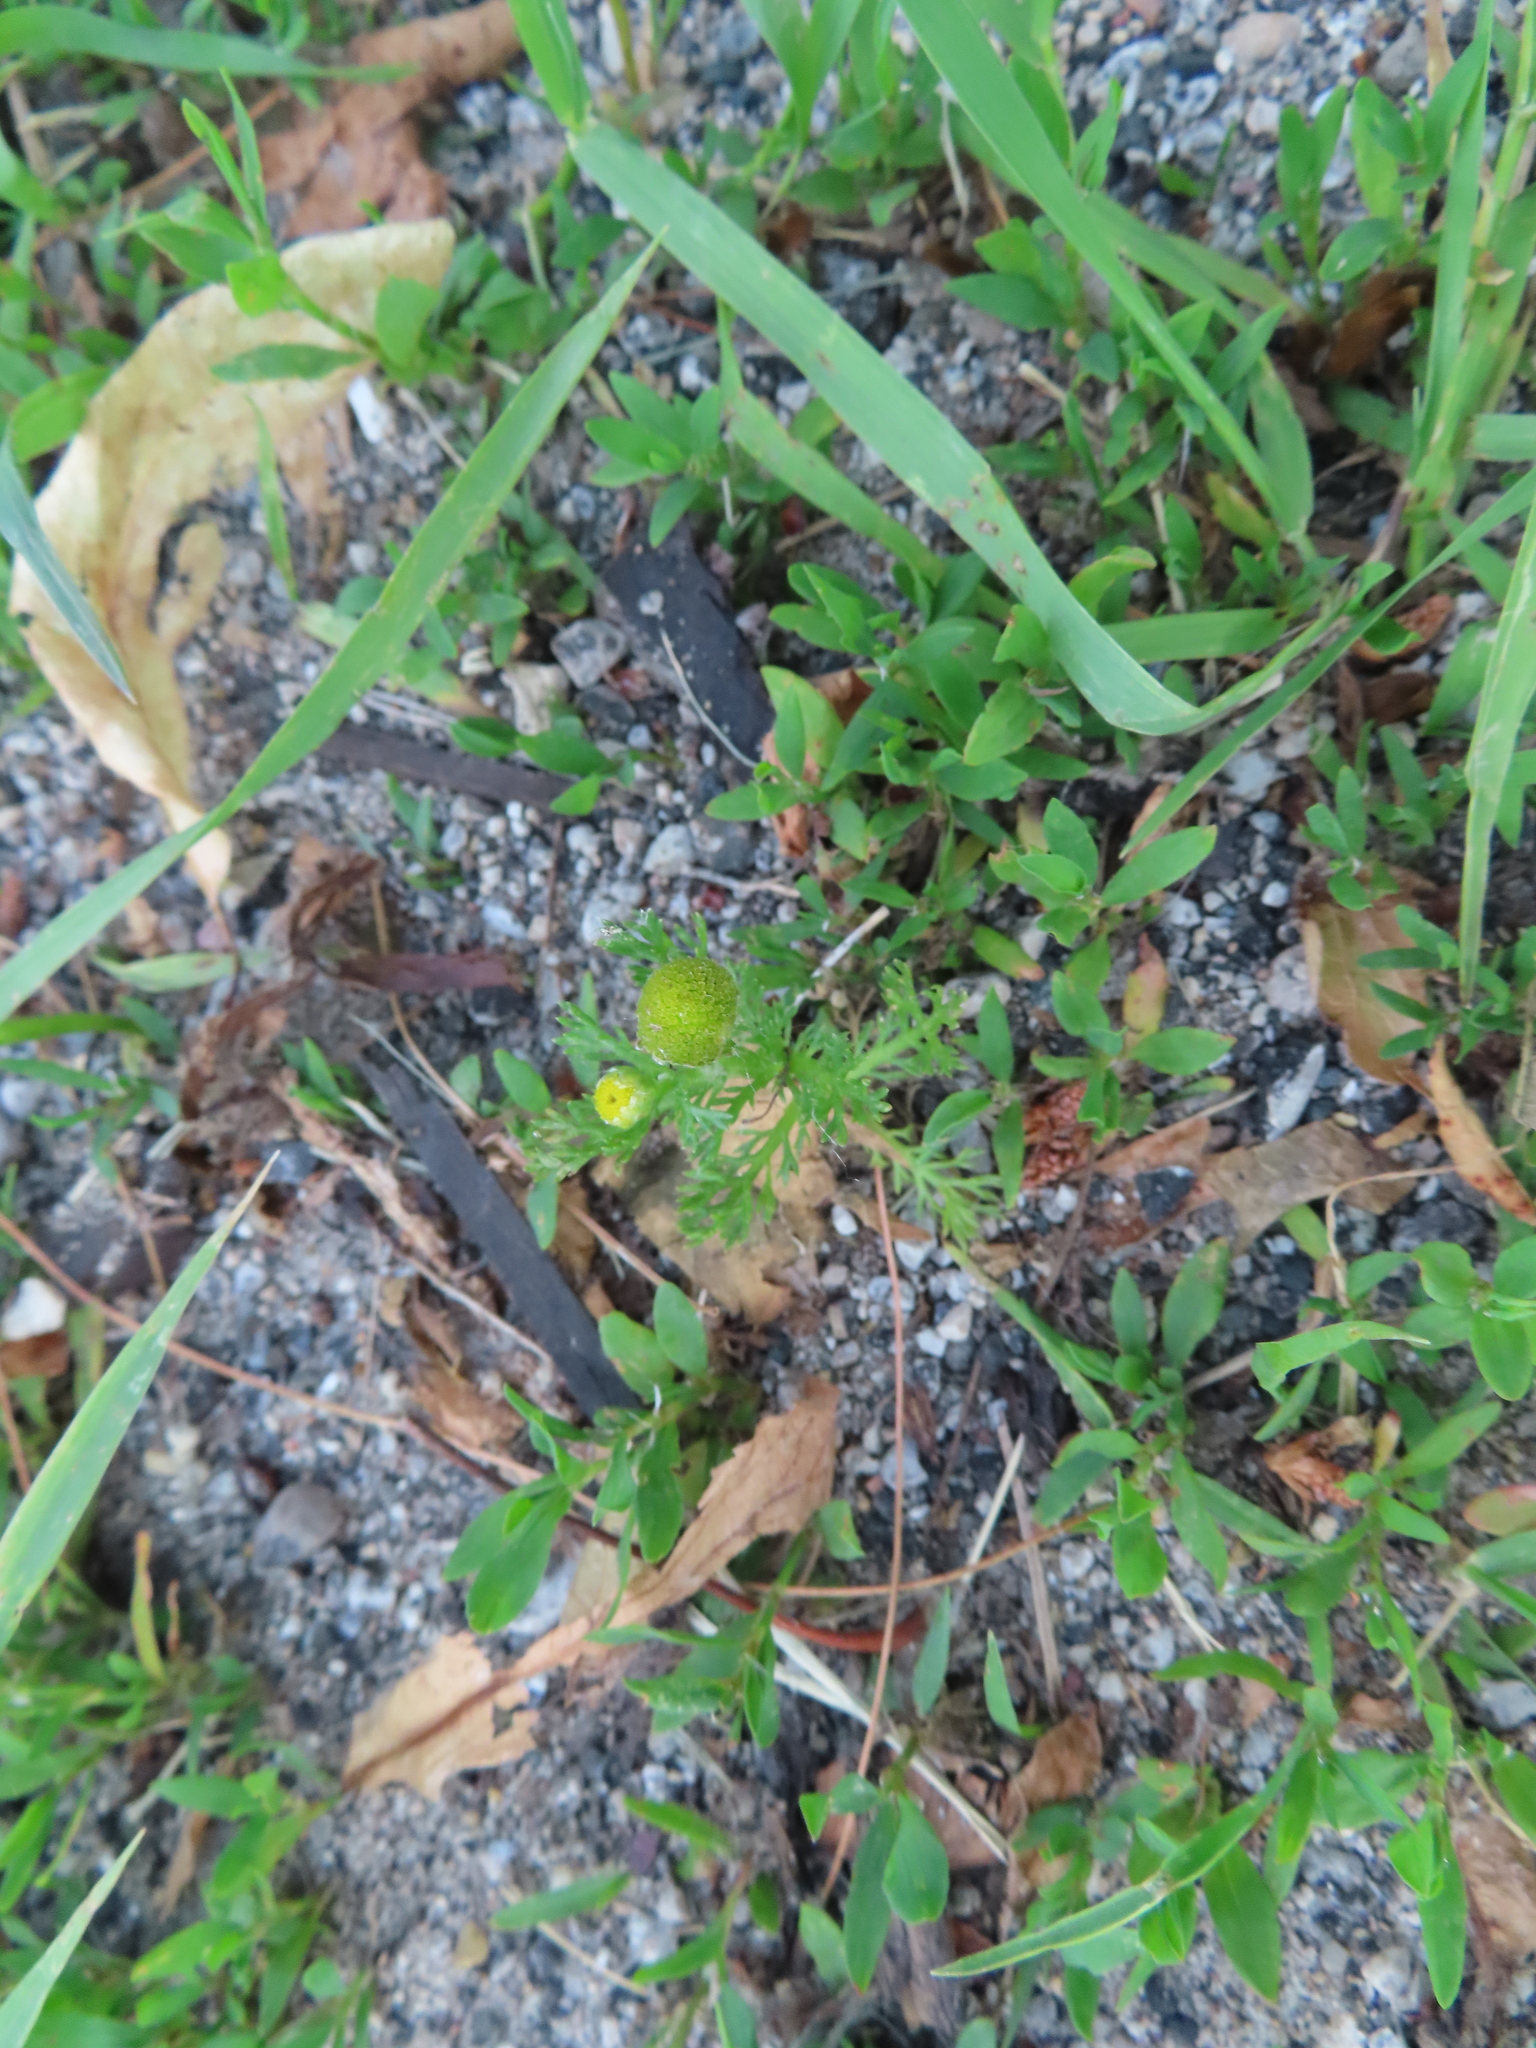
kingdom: Plantae
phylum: Tracheophyta
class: Magnoliopsida
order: Asterales
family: Asteraceae
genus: Matricaria
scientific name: Matricaria discoidea
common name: Disc mayweed
